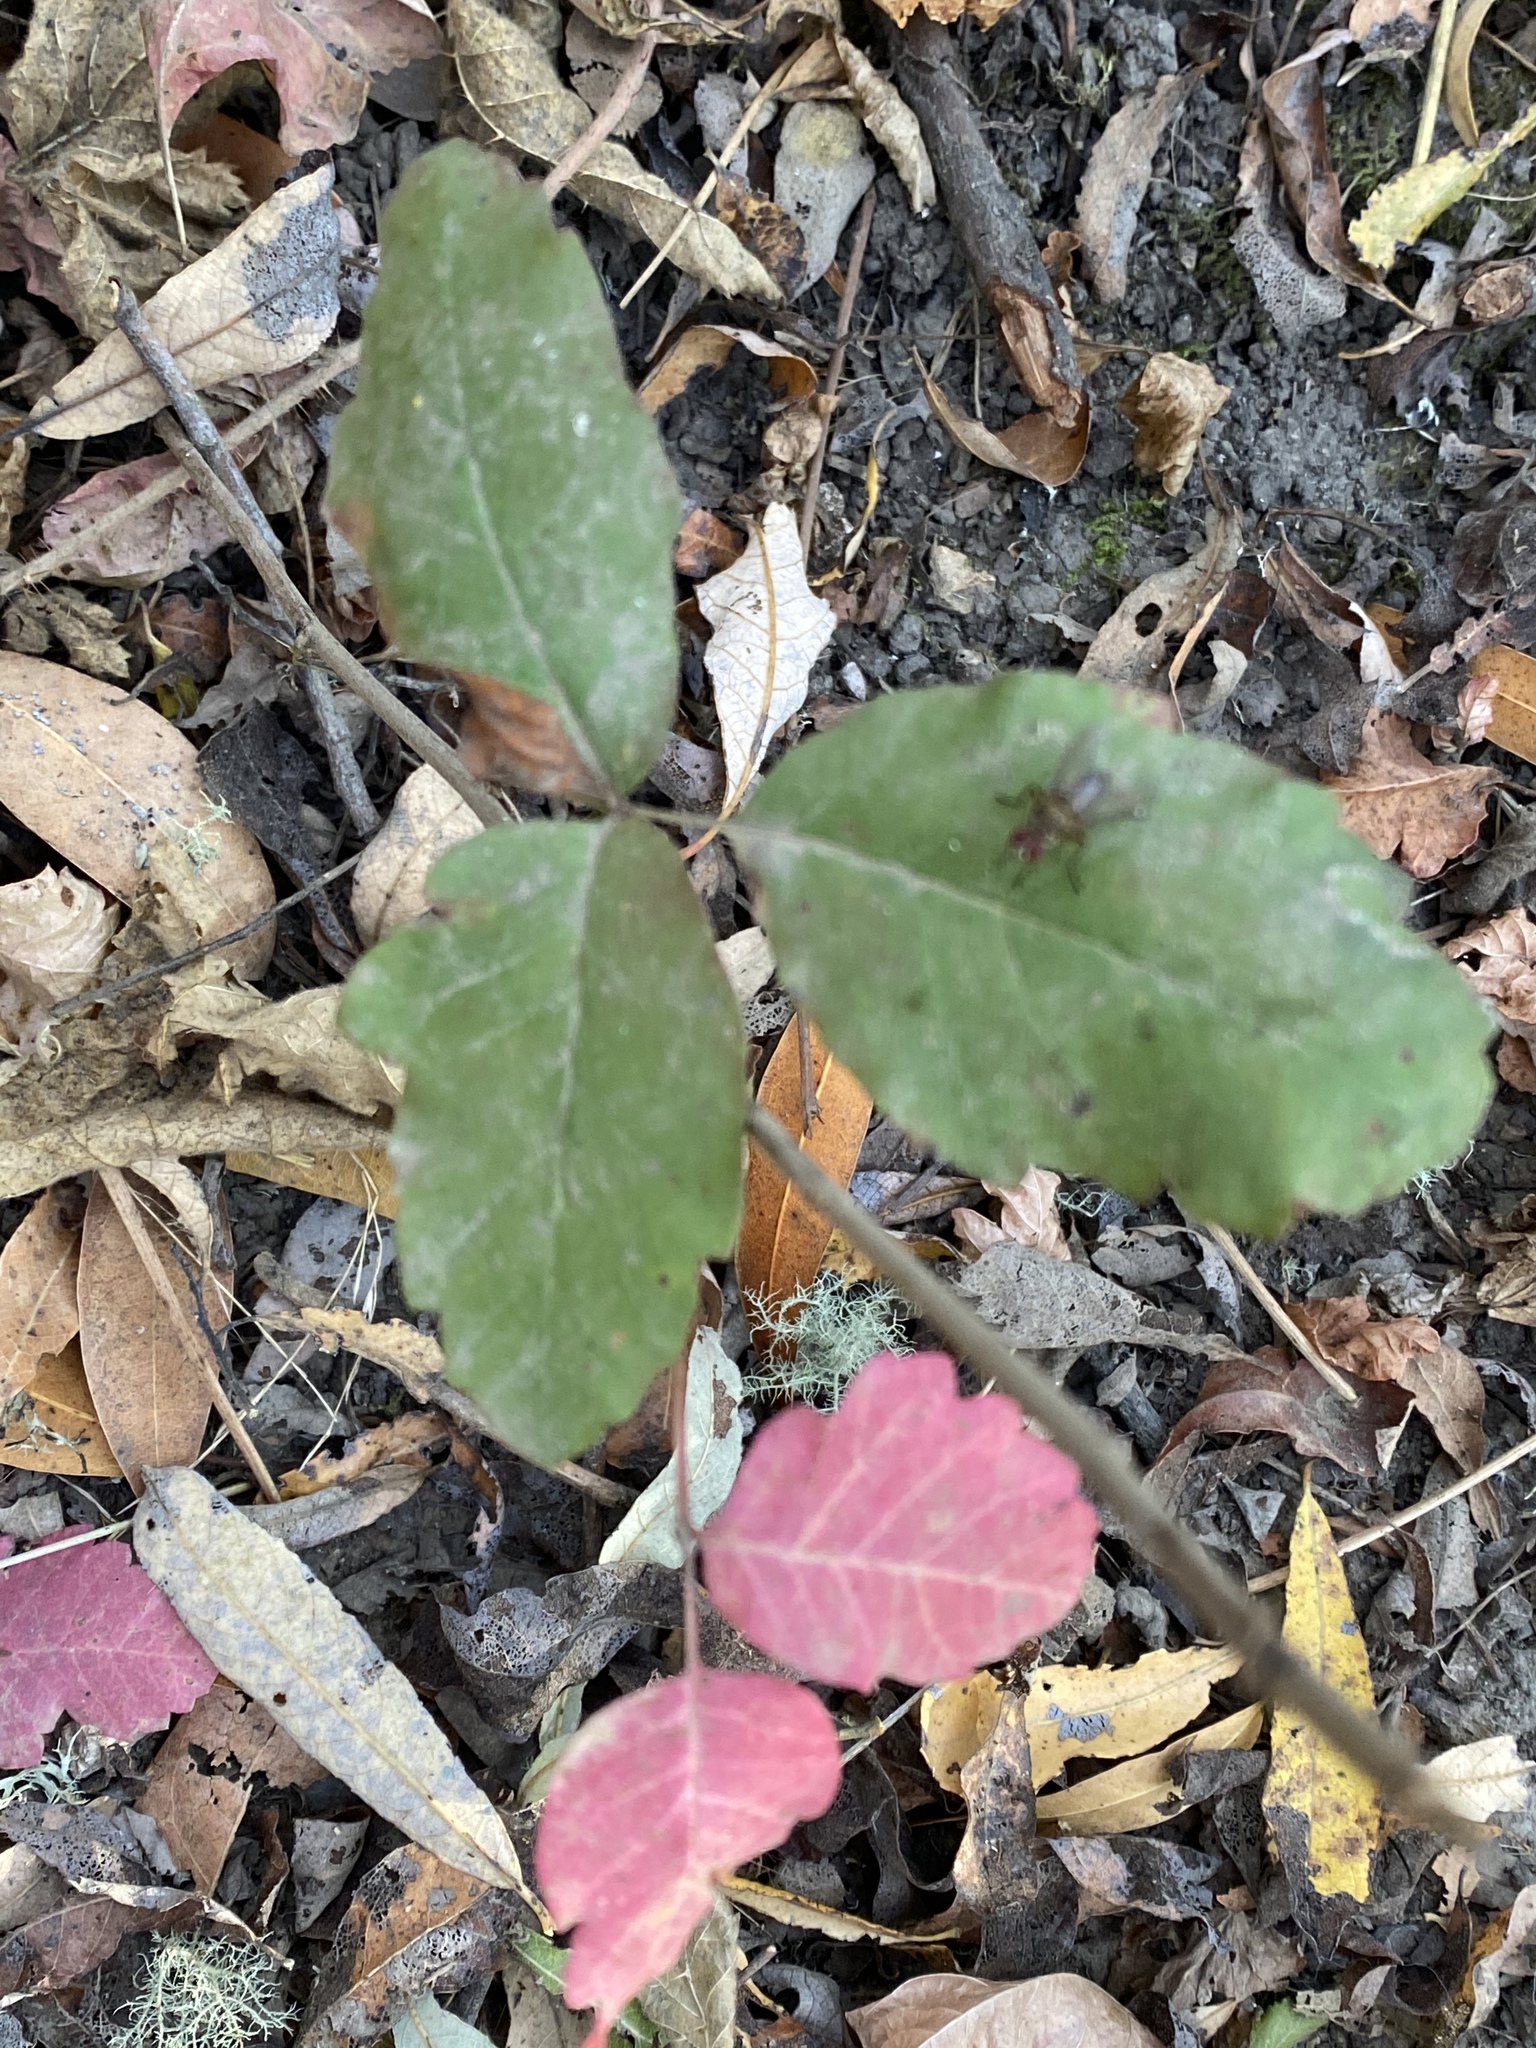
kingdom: Plantae
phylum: Tracheophyta
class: Magnoliopsida
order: Sapindales
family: Anacardiaceae
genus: Toxicodendron
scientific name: Toxicodendron diversilobum
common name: Pacific poison-oak
